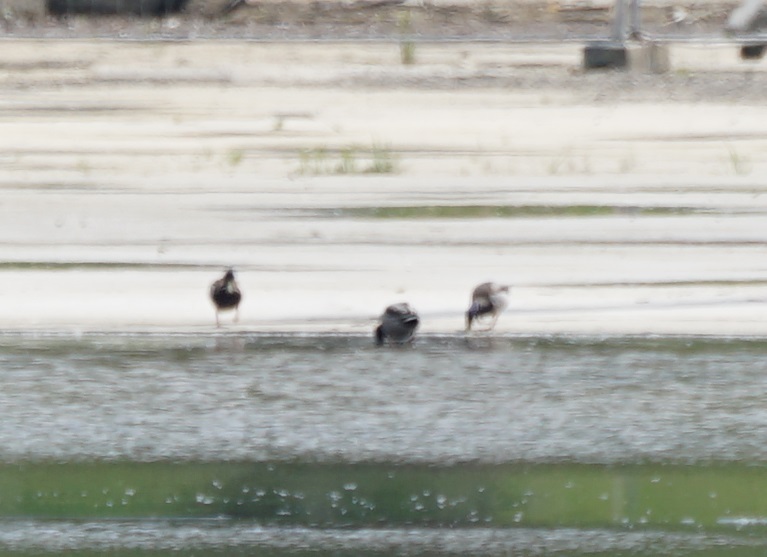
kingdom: Animalia
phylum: Chordata
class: Aves
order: Anseriformes
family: Anatidae
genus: Anas
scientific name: Anas platyrhynchos
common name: Mallard
